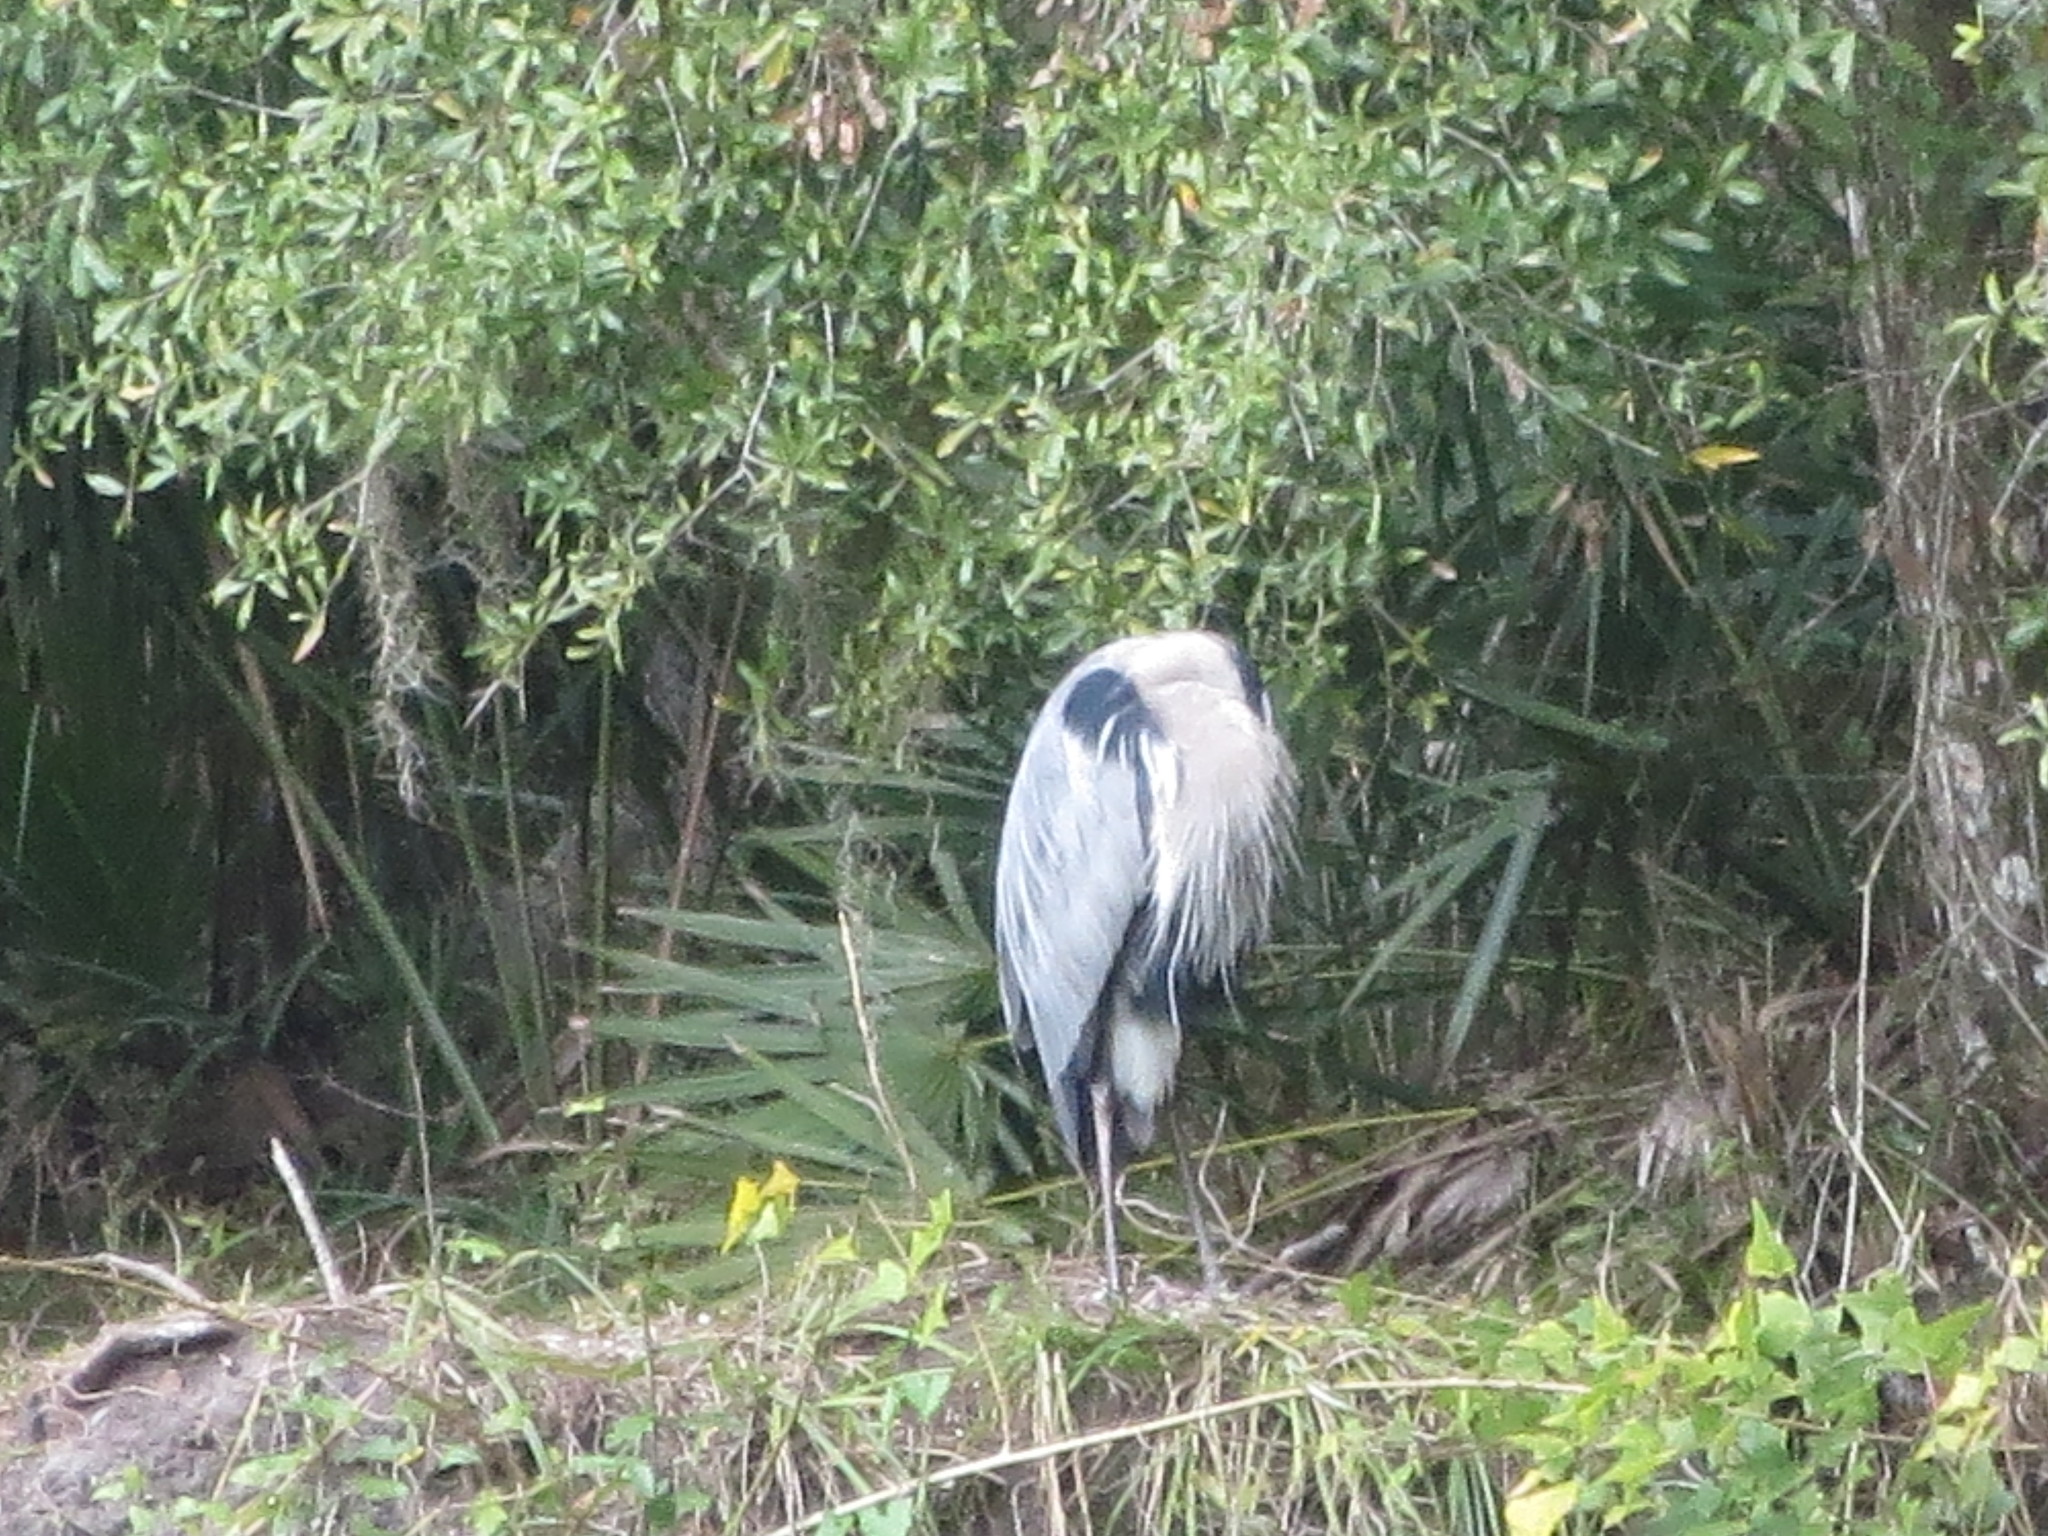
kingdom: Animalia
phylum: Chordata
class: Aves
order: Pelecaniformes
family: Ardeidae
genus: Ardea
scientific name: Ardea herodias
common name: Great blue heron
